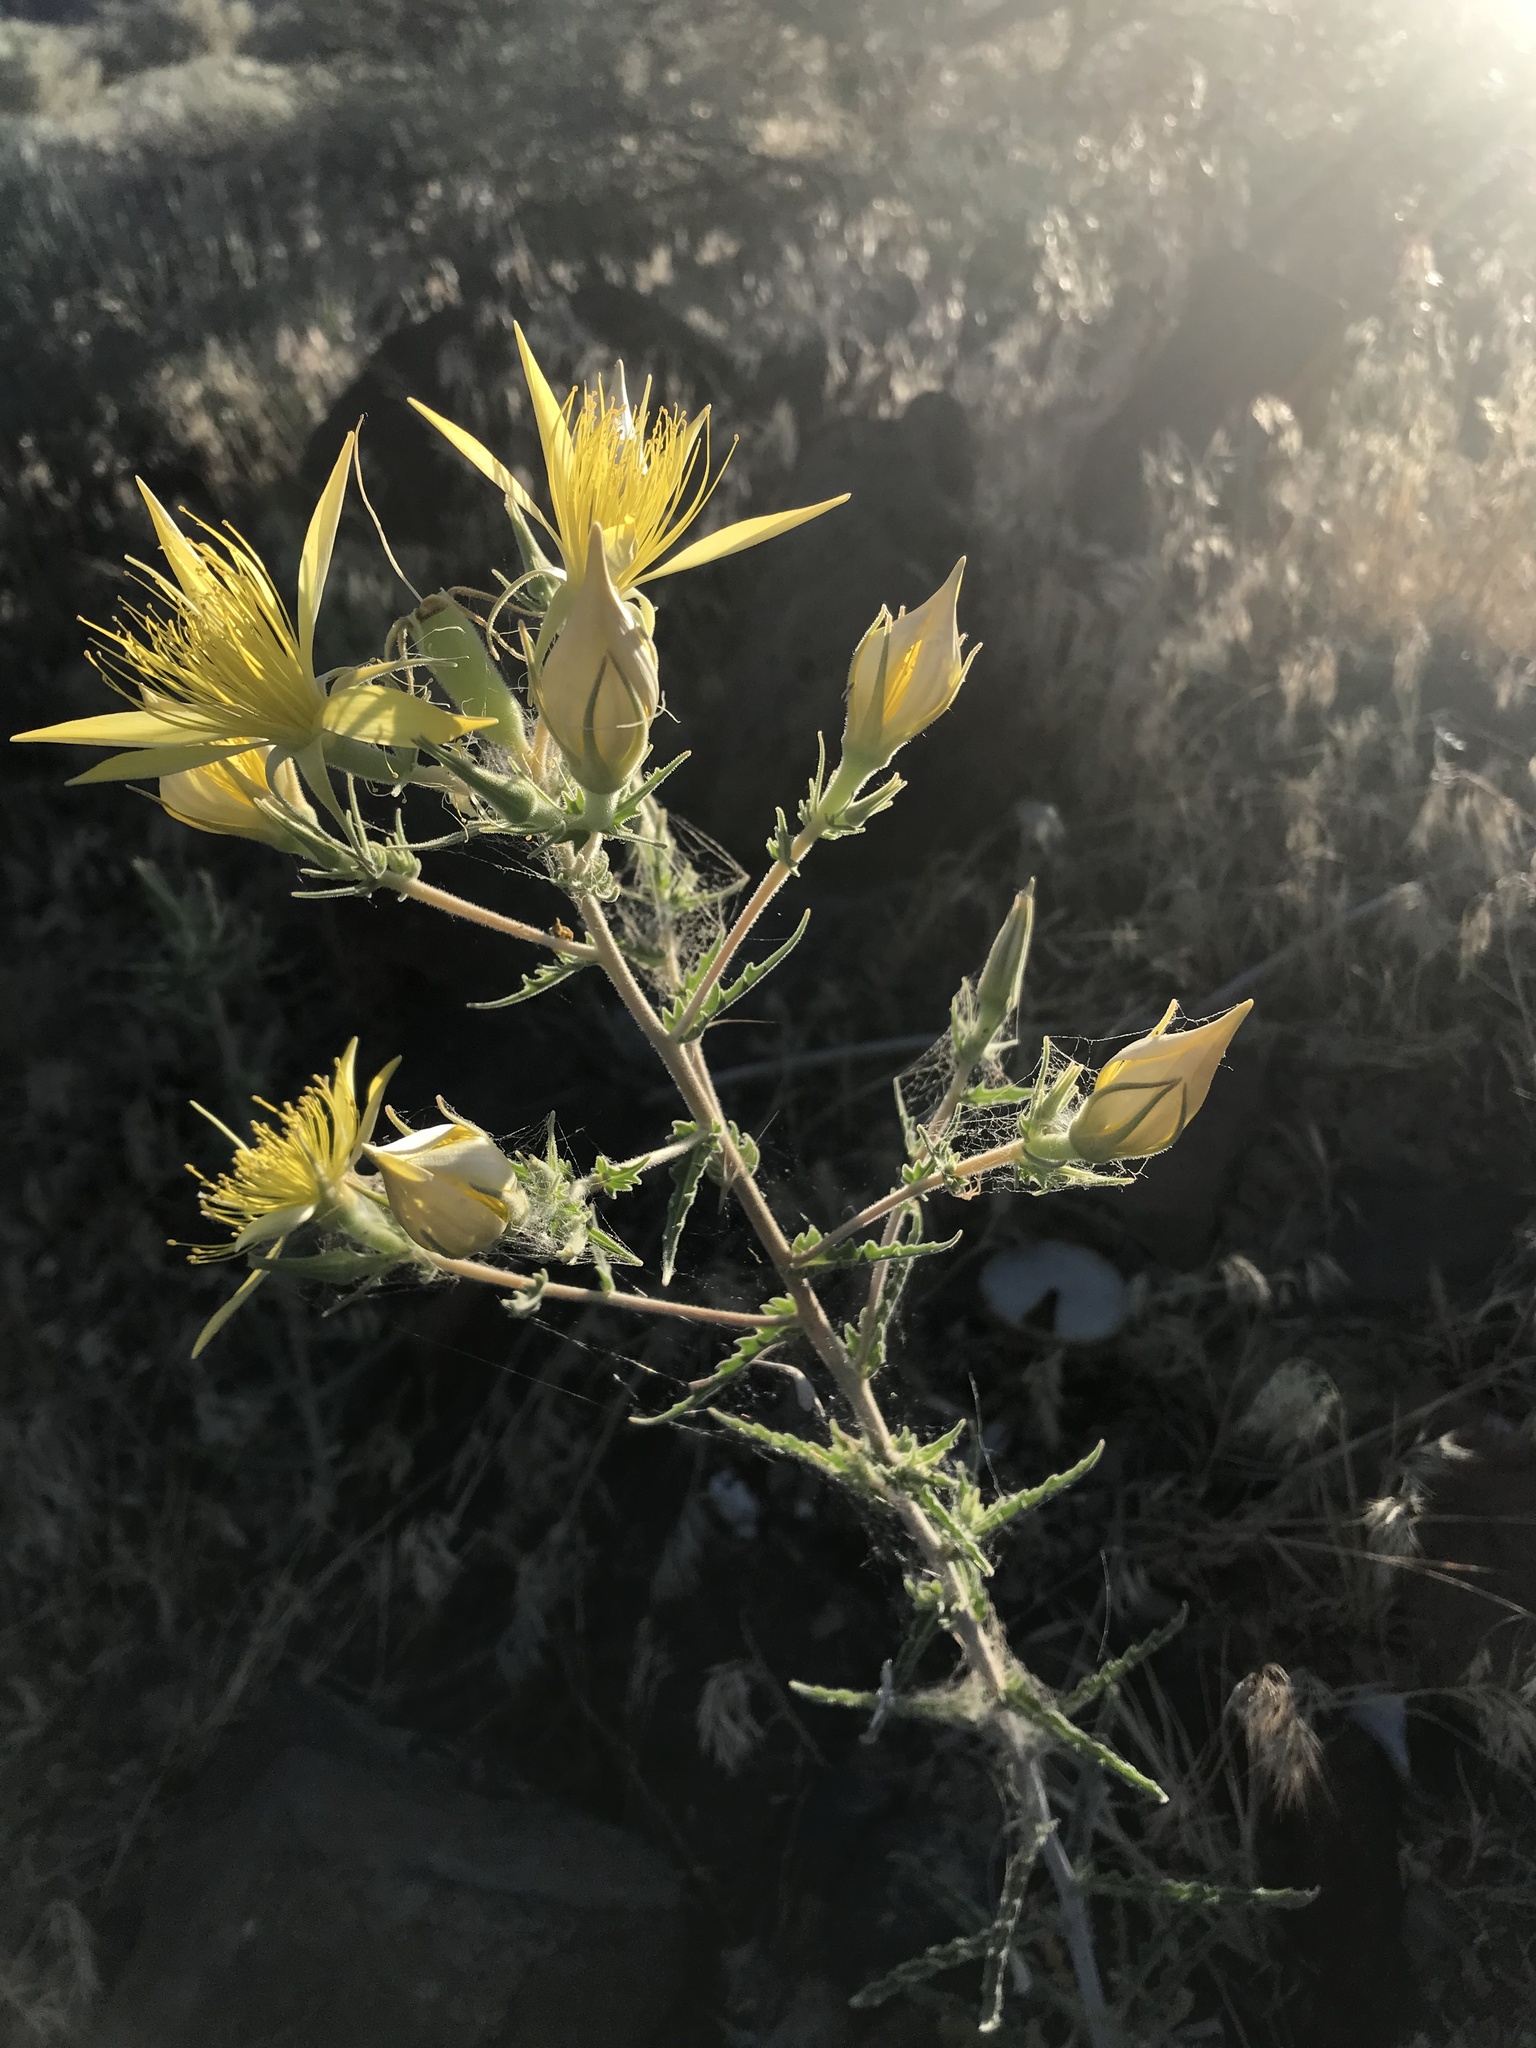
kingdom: Plantae
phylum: Tracheophyta
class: Magnoliopsida
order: Cornales
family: Loasaceae
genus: Mentzelia
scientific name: Mentzelia laevicaulis
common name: Smooth-stem blazingstar
